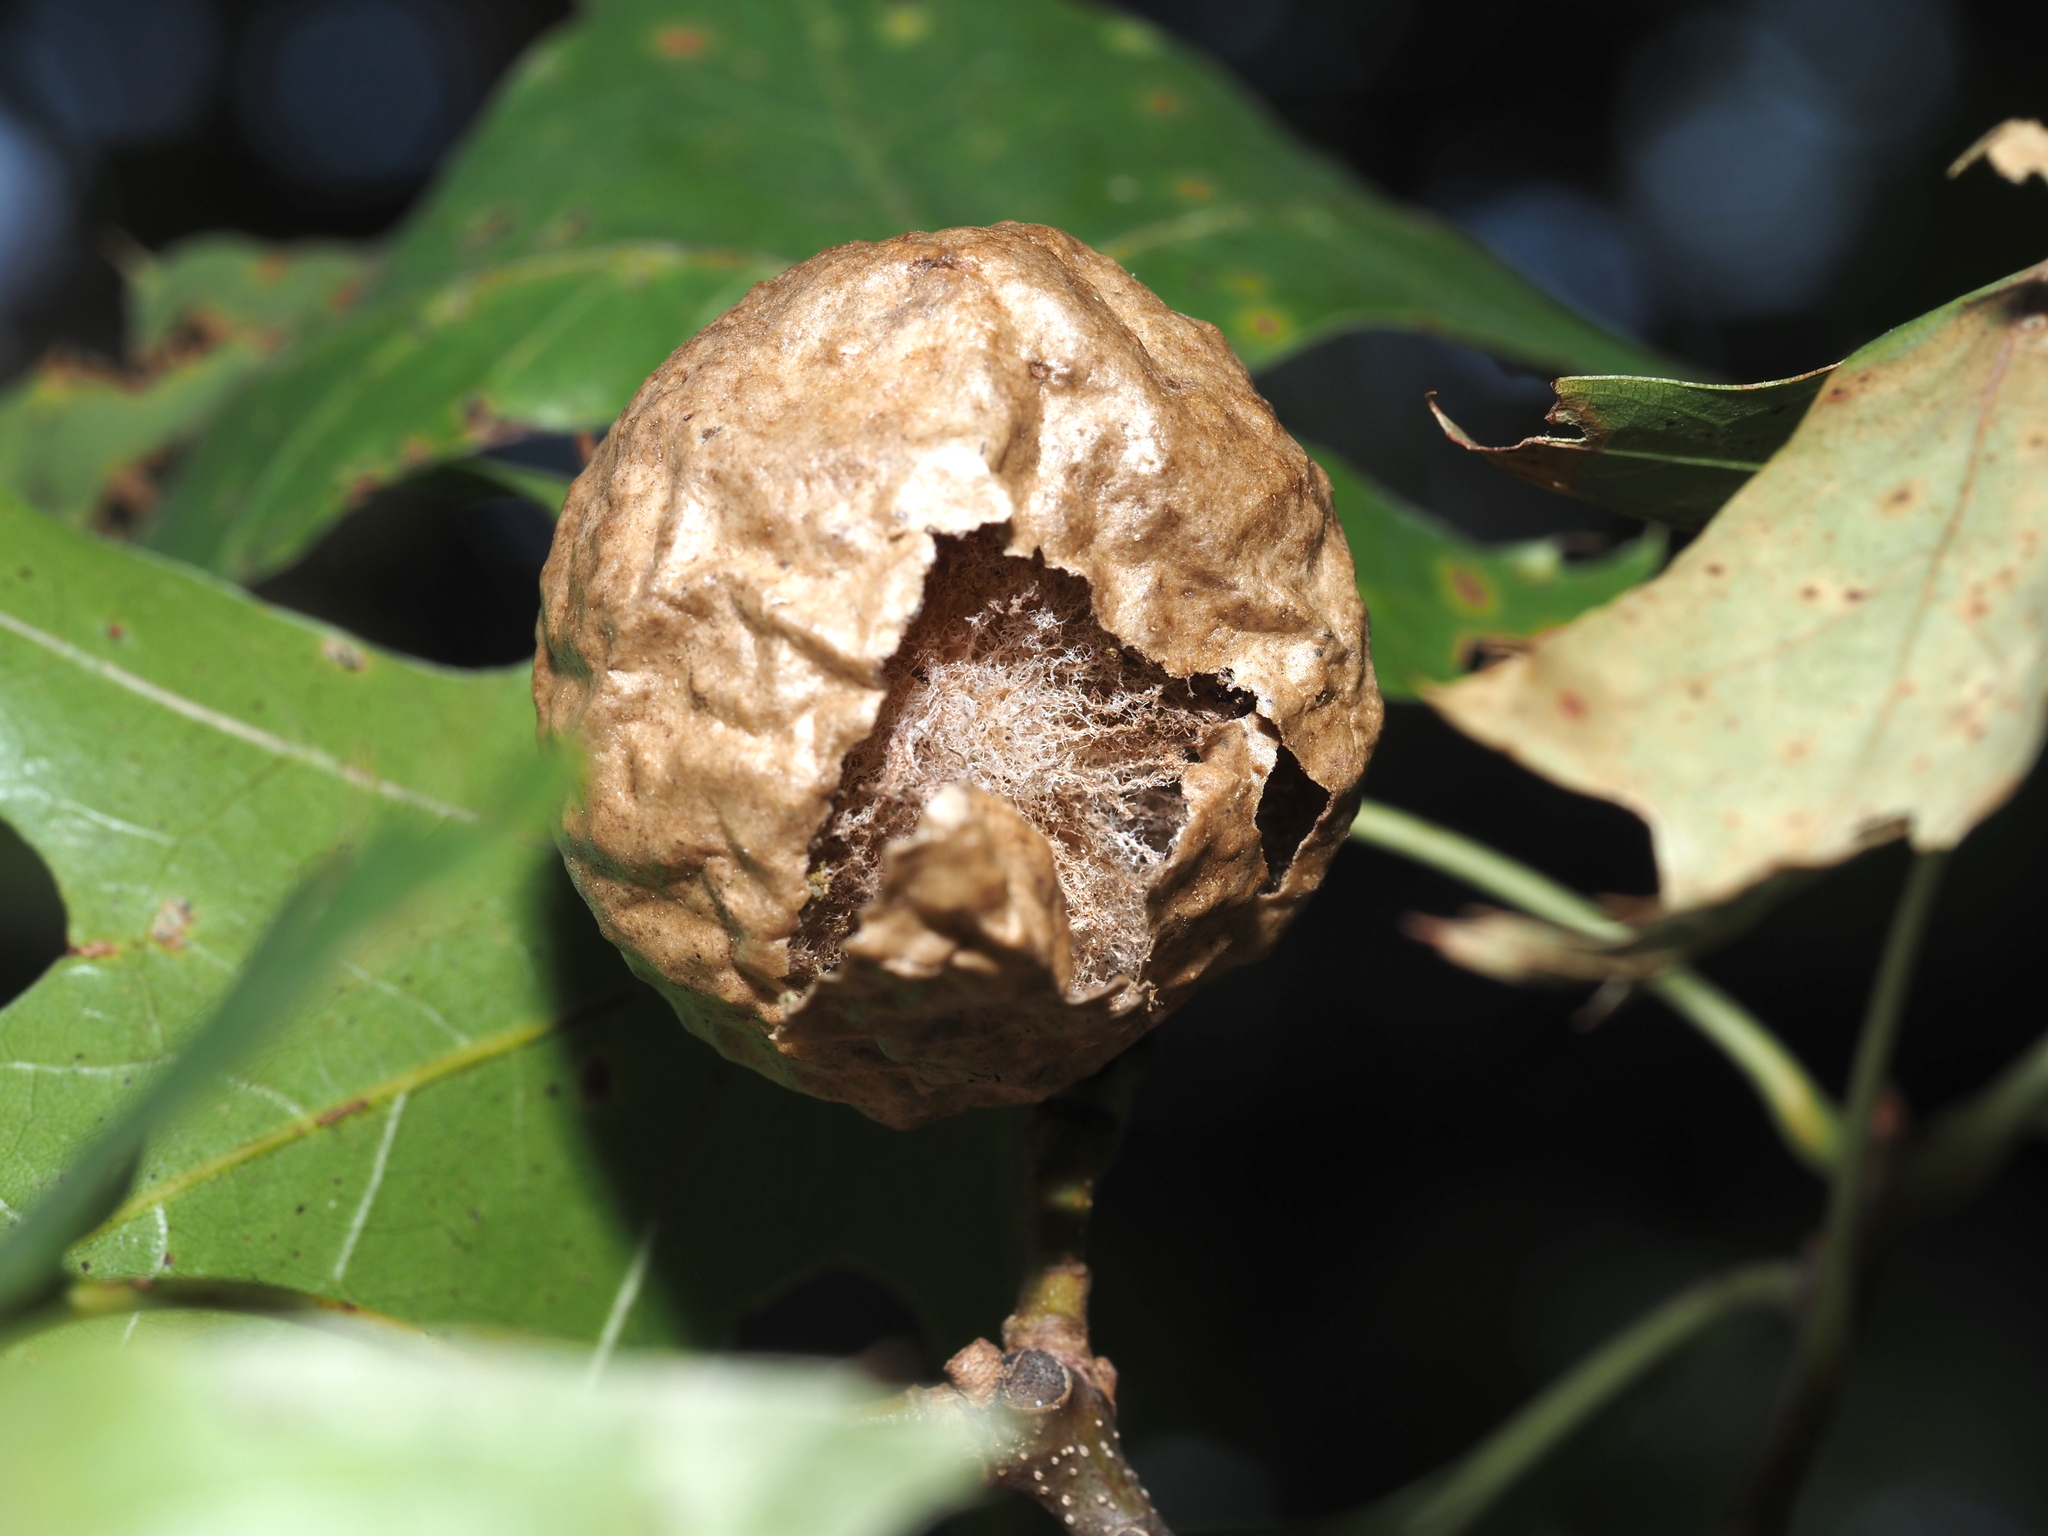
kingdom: Animalia
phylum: Arthropoda
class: Insecta
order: Hymenoptera
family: Cynipidae
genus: Amphibolips
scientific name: Amphibolips
